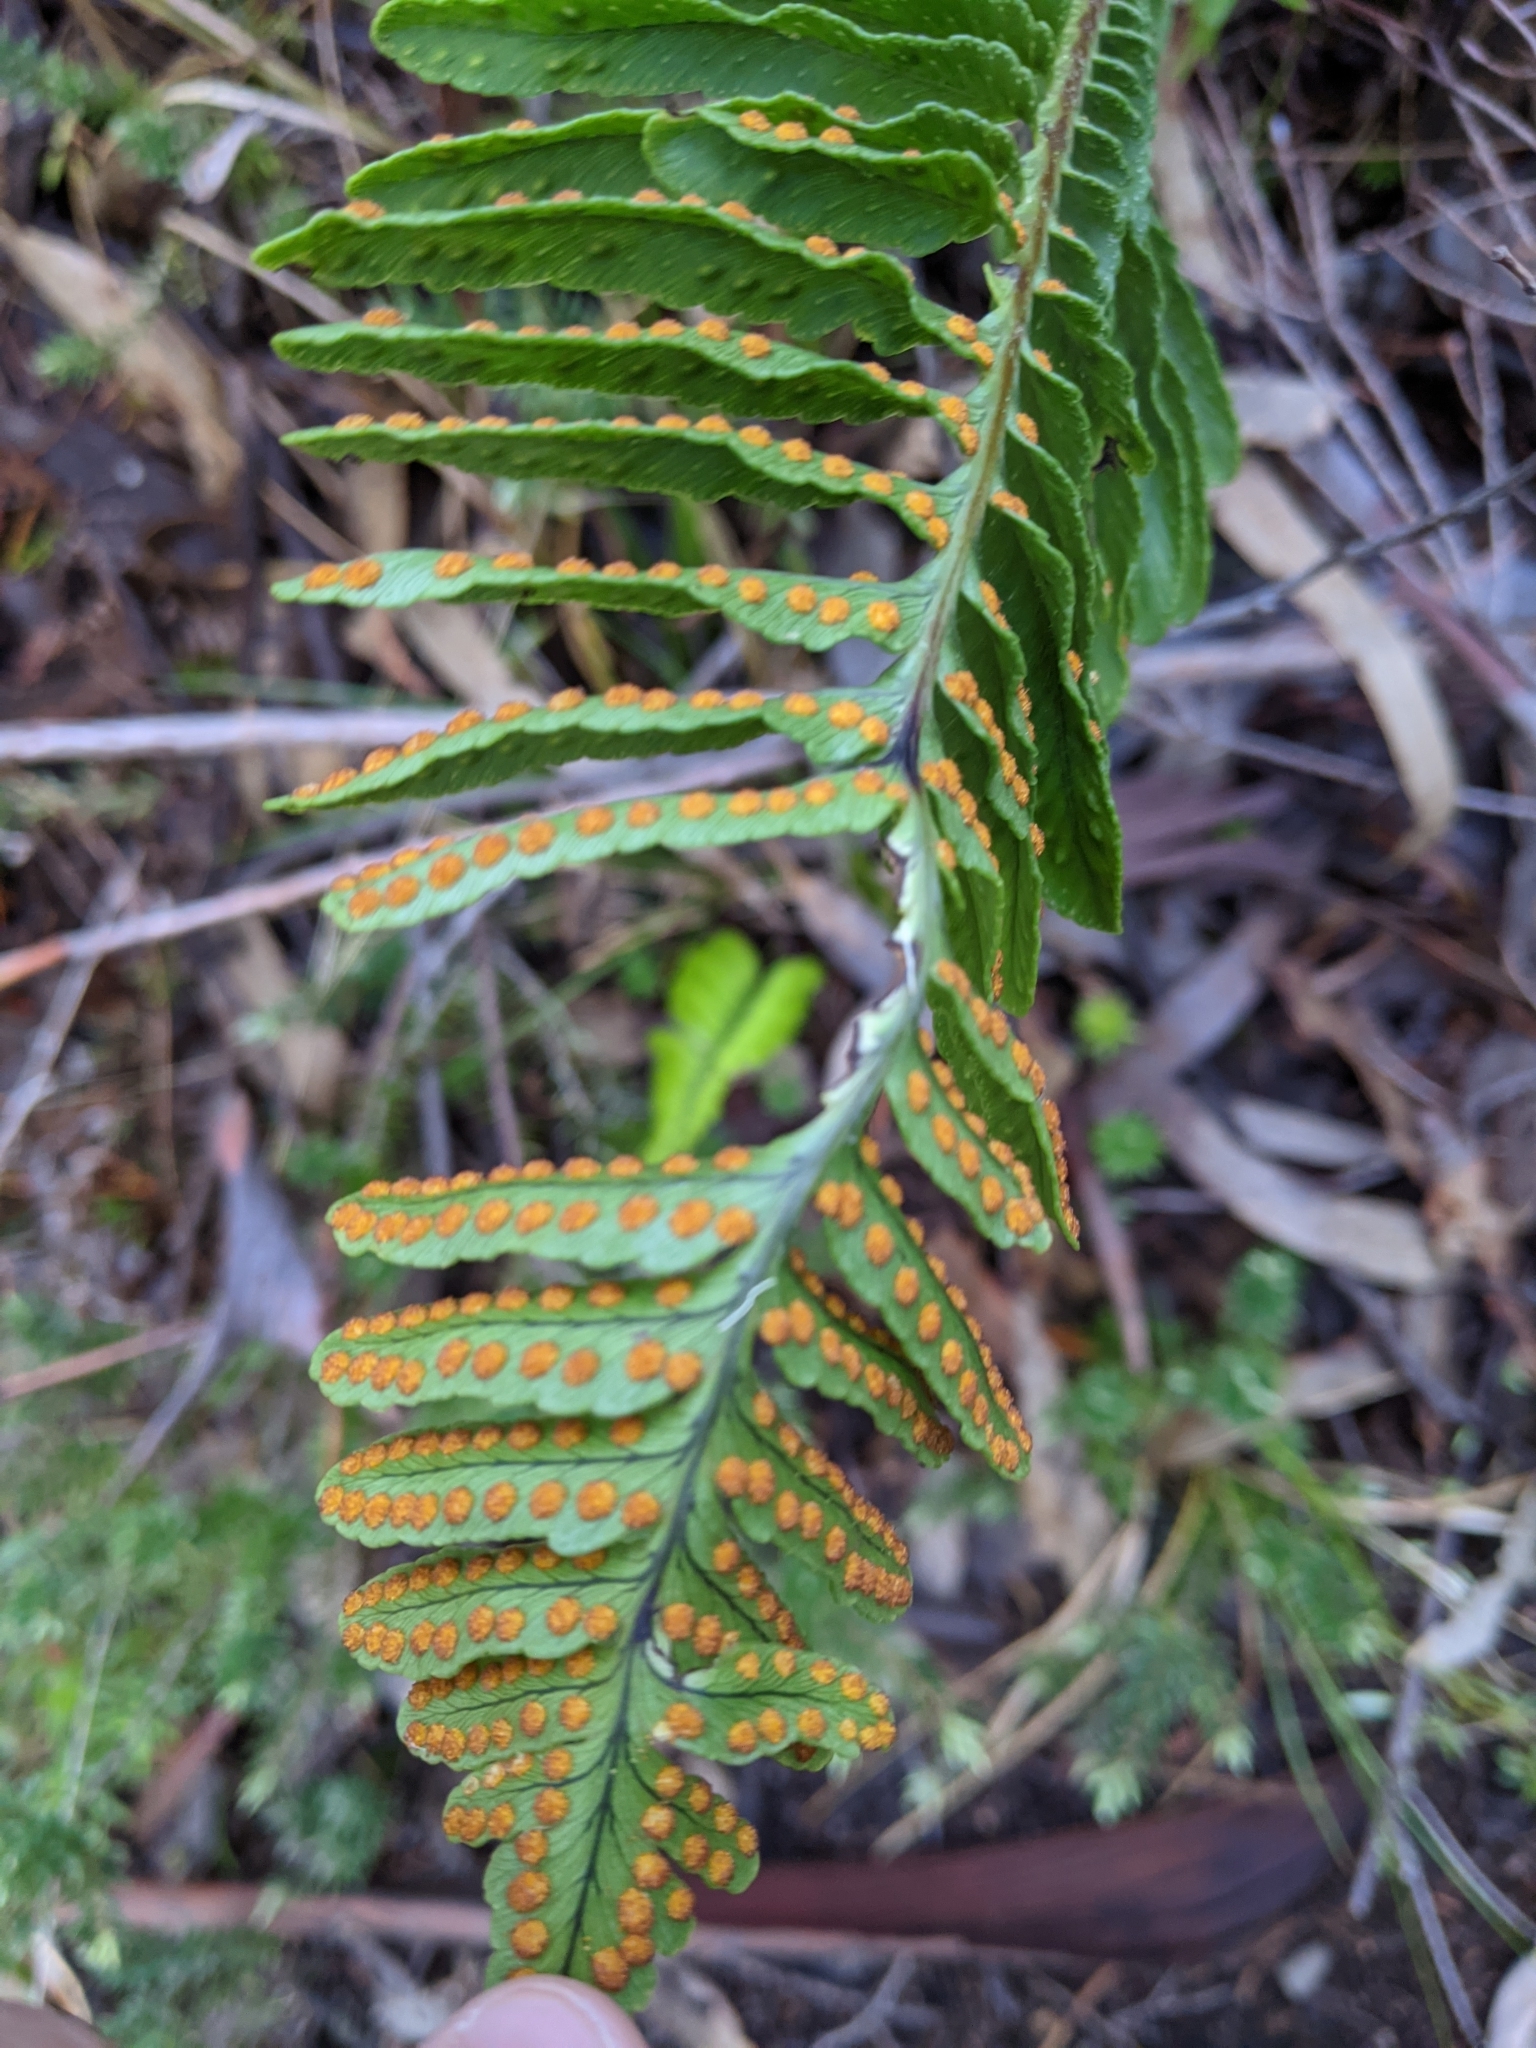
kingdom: Plantae
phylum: Tracheophyta
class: Polypodiopsida
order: Polypodiales
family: Polypodiaceae
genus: Polypodium
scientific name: Polypodium pellucidum
